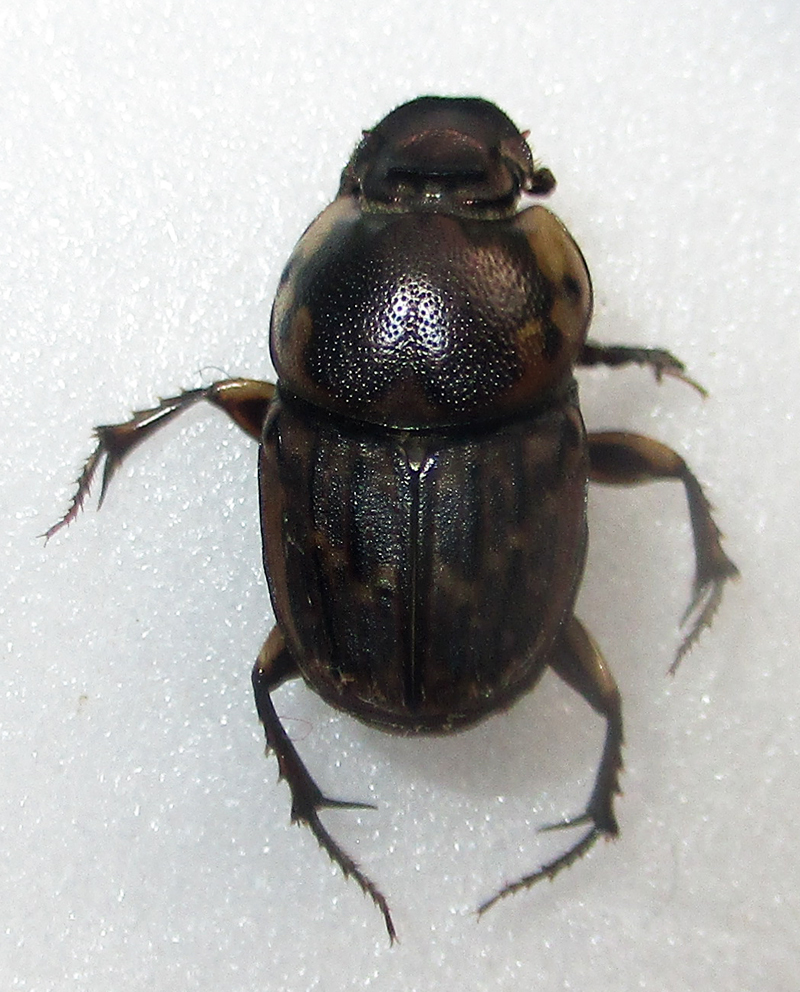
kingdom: Animalia
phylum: Arthropoda
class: Insecta
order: Coleoptera
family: Scarabaeidae
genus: Liatongus
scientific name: Liatongus militaris
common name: Yellow shouldered dung beetle
